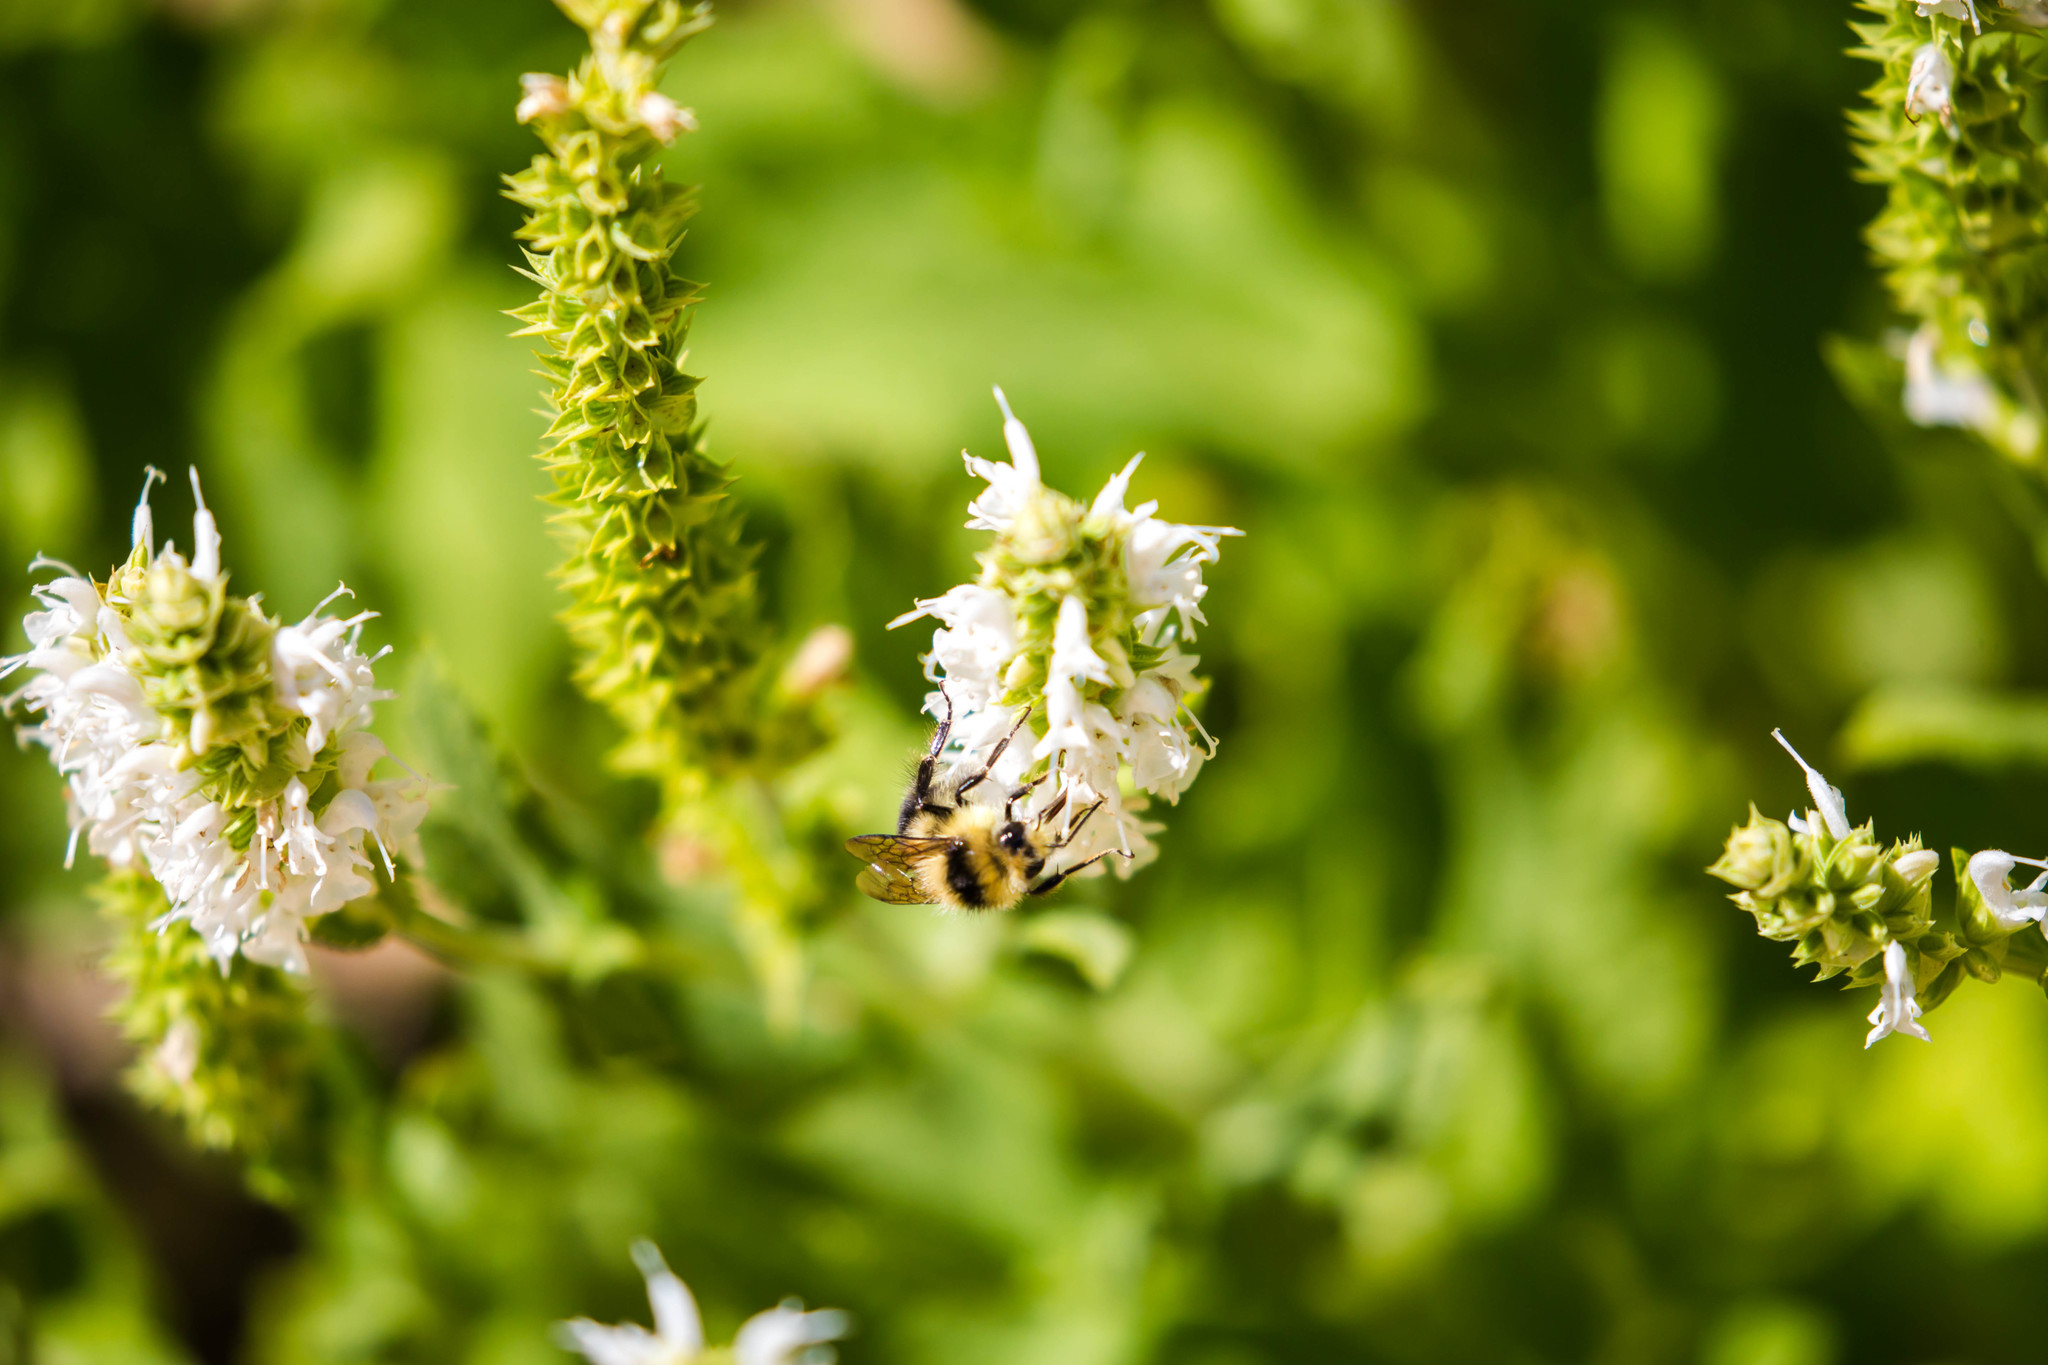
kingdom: Animalia
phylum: Arthropoda
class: Insecta
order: Hymenoptera
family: Apidae
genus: Bombus
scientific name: Bombus melanopygus
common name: Black tail bumble bee
